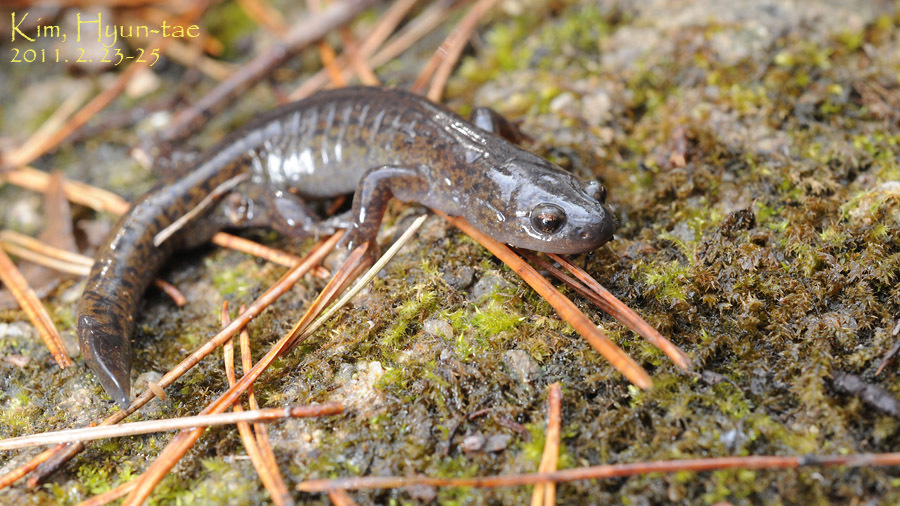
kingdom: Animalia
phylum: Chordata
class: Amphibia
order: Caudata
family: Hynobiidae
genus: Hynobius
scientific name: Hynobius notialis
